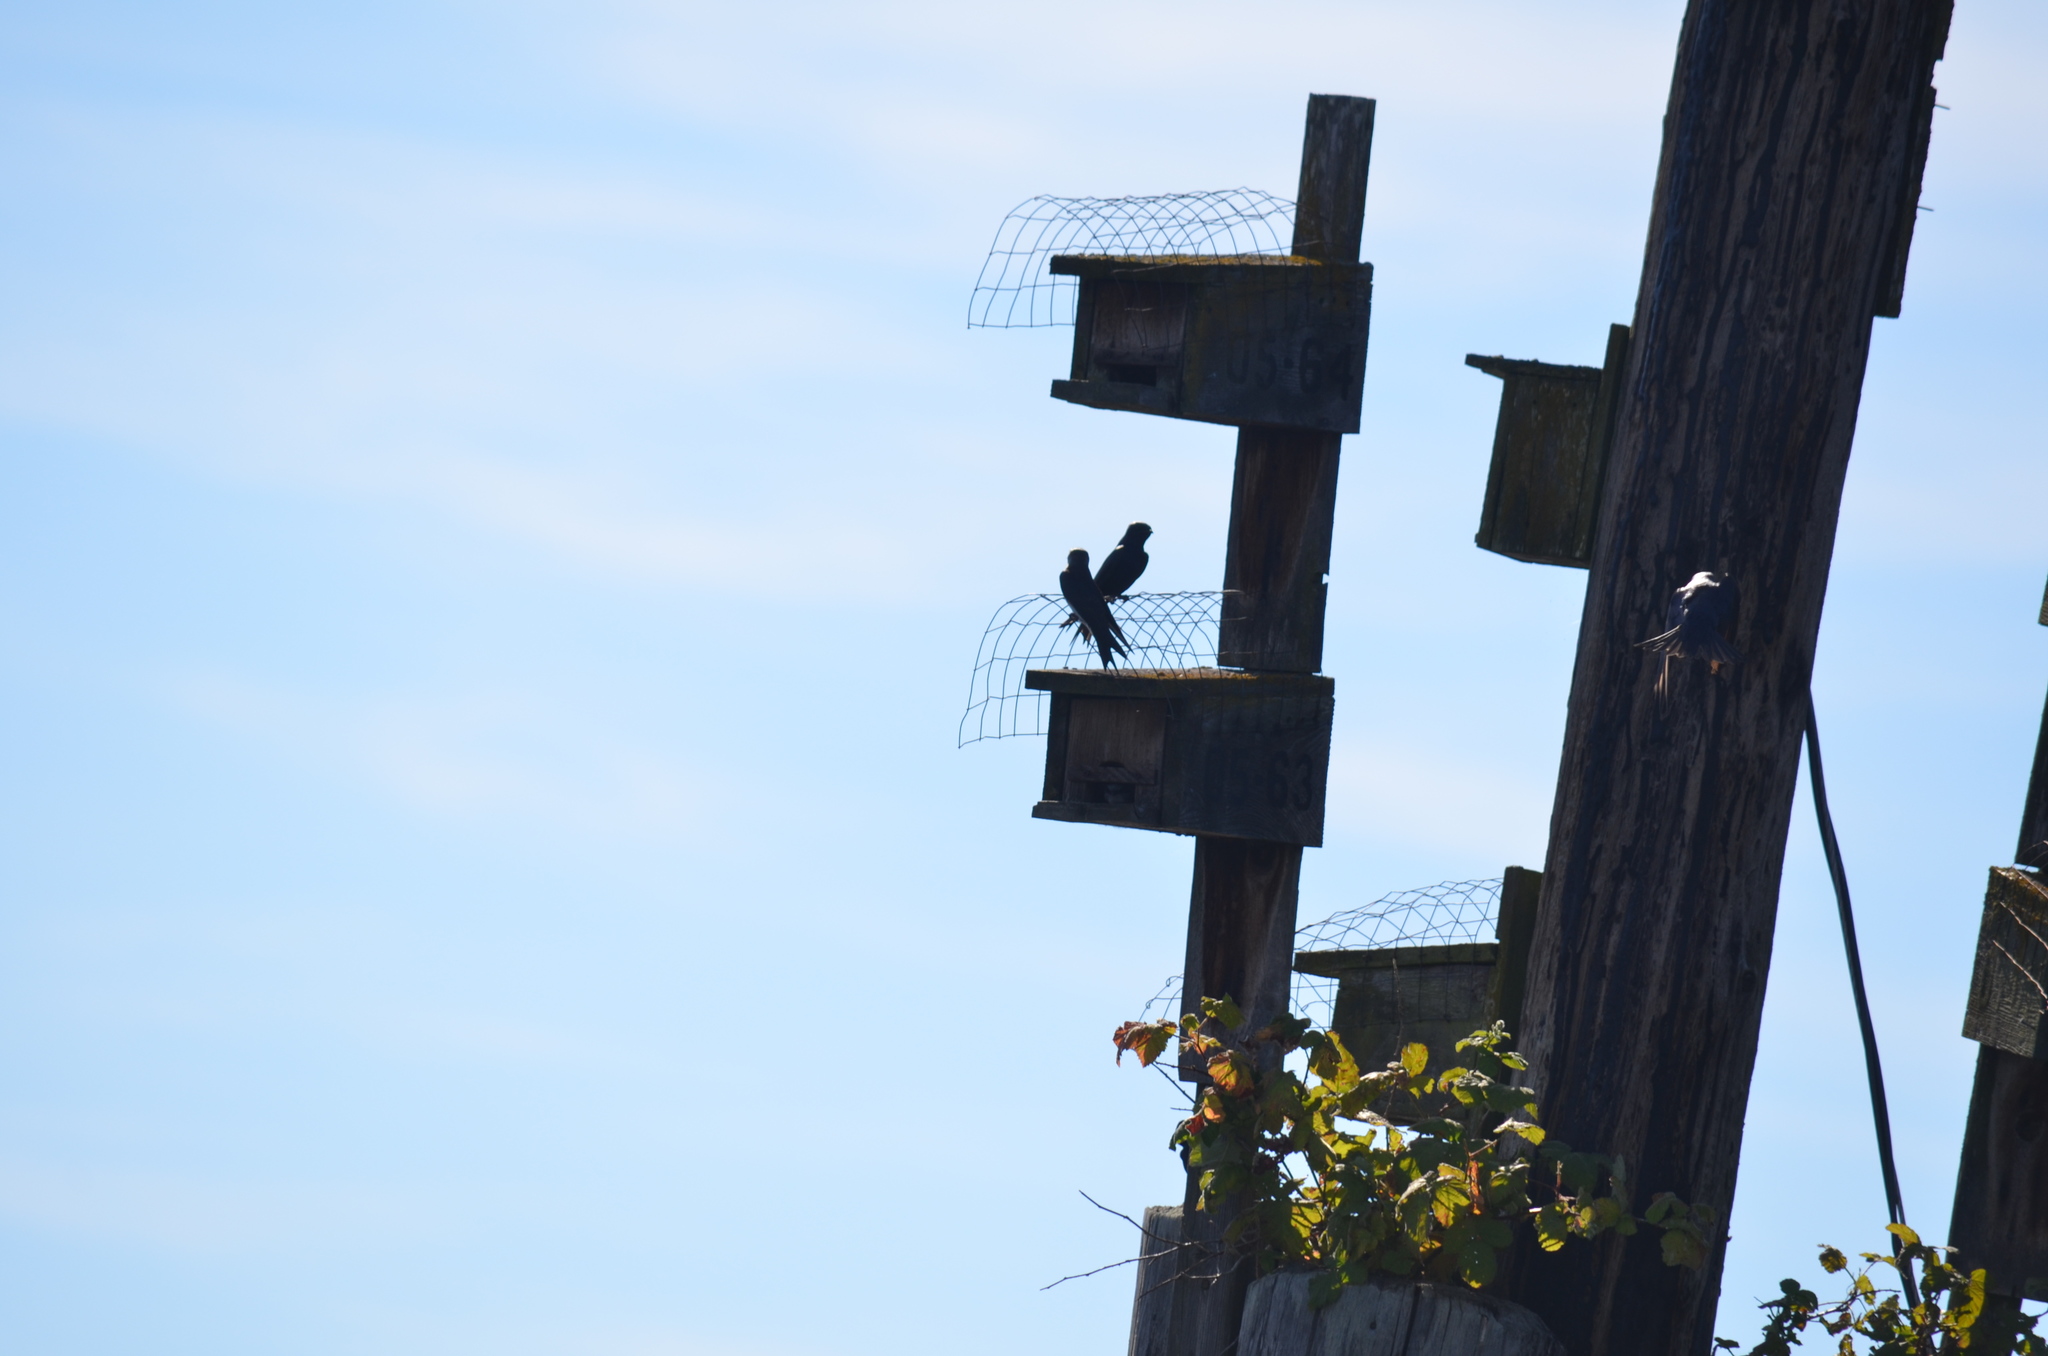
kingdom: Animalia
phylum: Chordata
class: Aves
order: Passeriformes
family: Hirundinidae
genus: Progne
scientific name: Progne subis
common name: Purple martin
